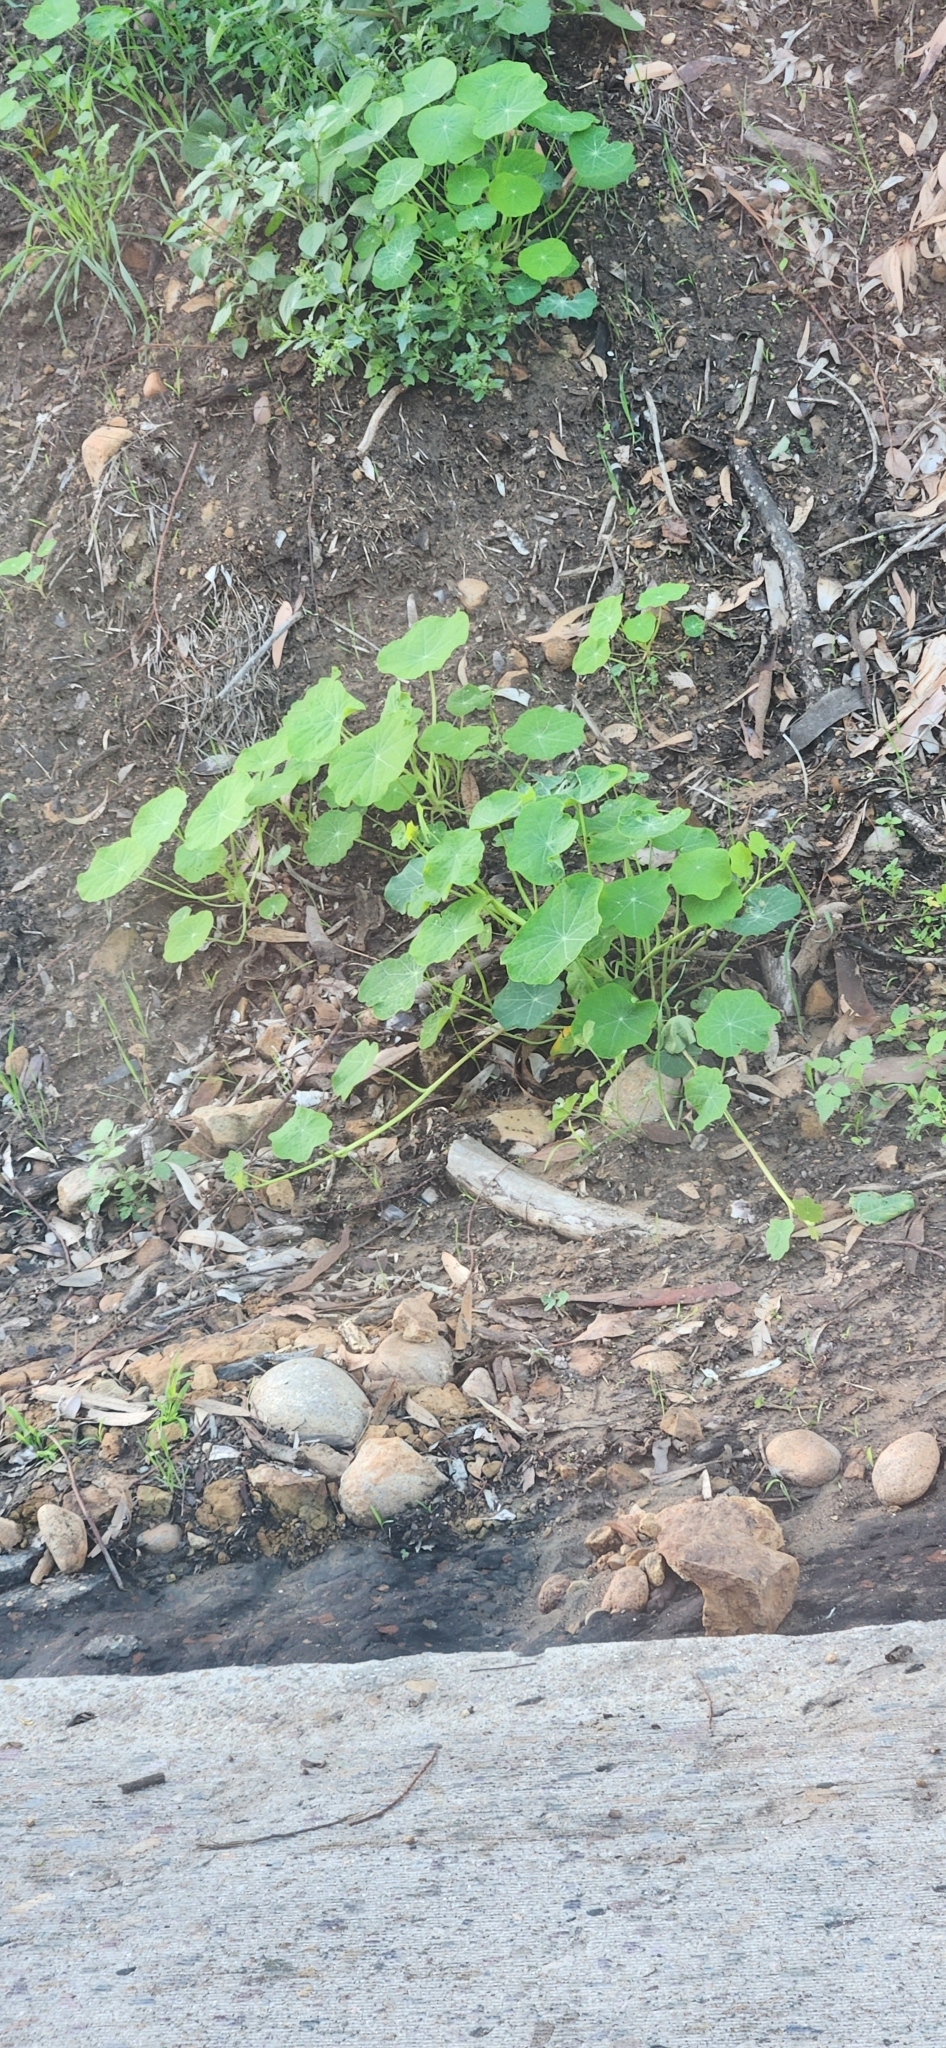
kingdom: Plantae
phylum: Tracheophyta
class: Magnoliopsida
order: Brassicales
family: Tropaeolaceae
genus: Tropaeolum
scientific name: Tropaeolum majus
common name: Nasturtium
